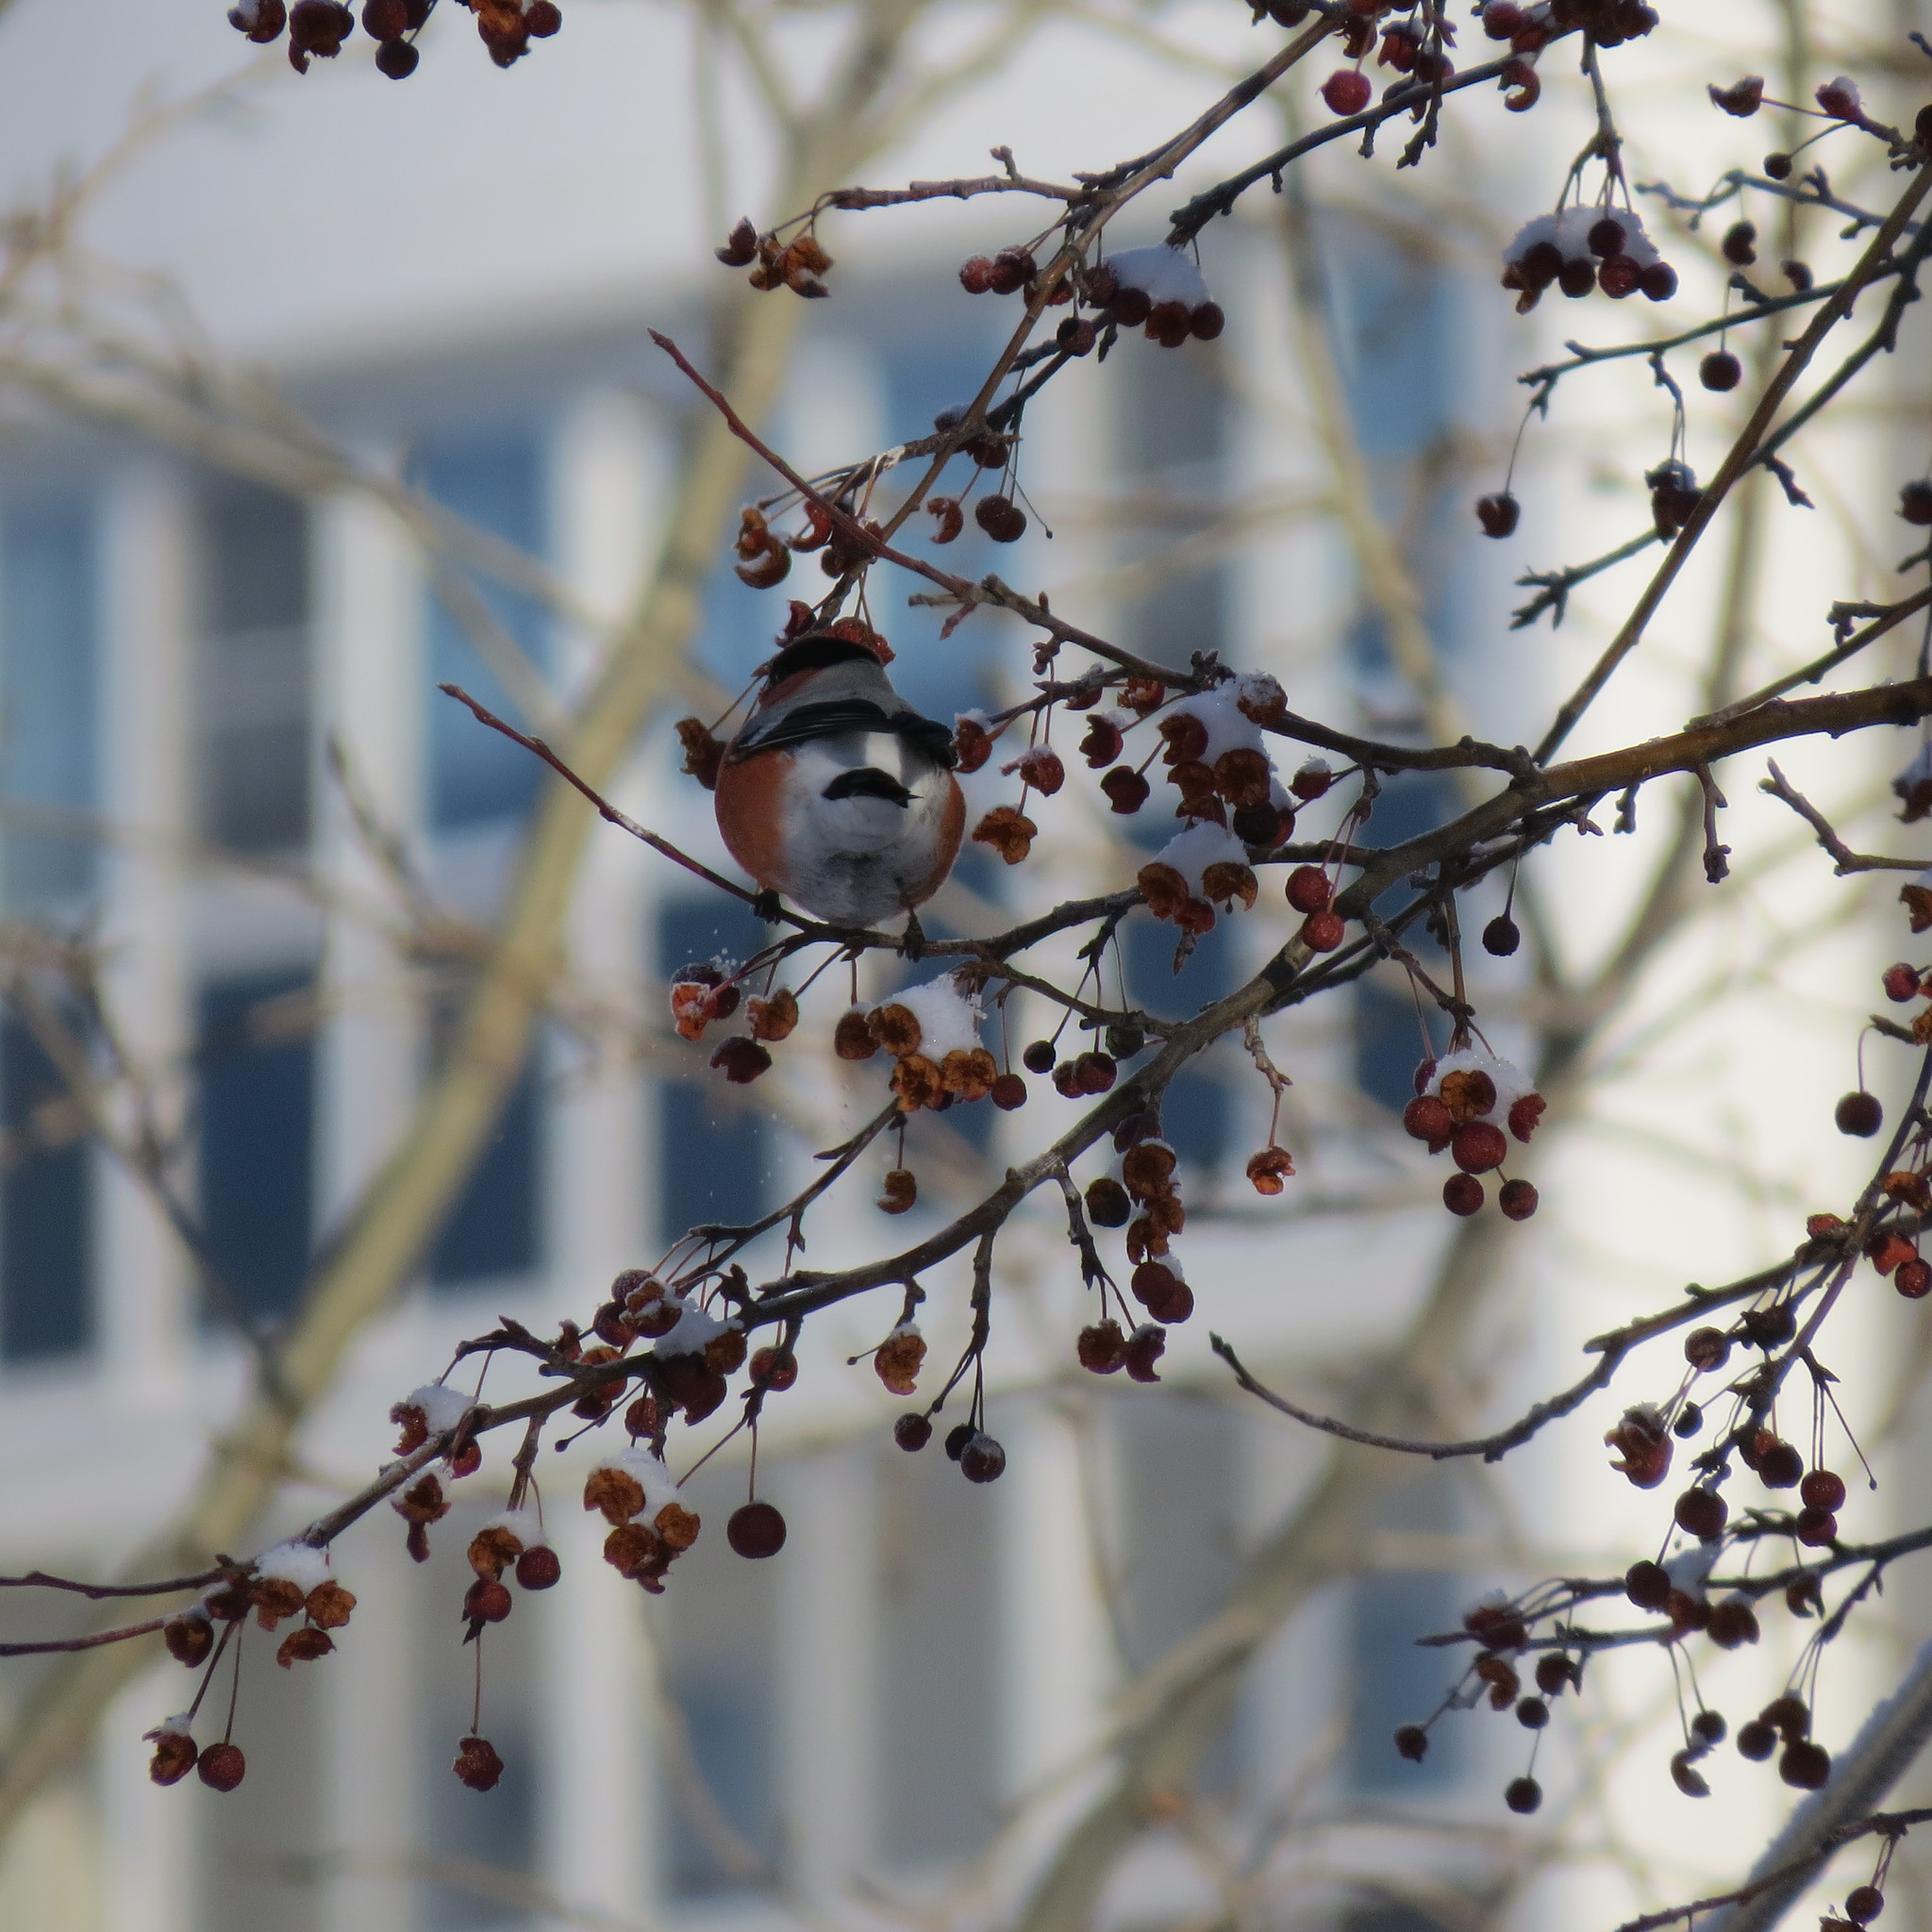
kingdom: Animalia
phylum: Chordata
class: Aves
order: Passeriformes
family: Fringillidae
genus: Pyrrhula
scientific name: Pyrrhula pyrrhula
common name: Eurasian bullfinch
